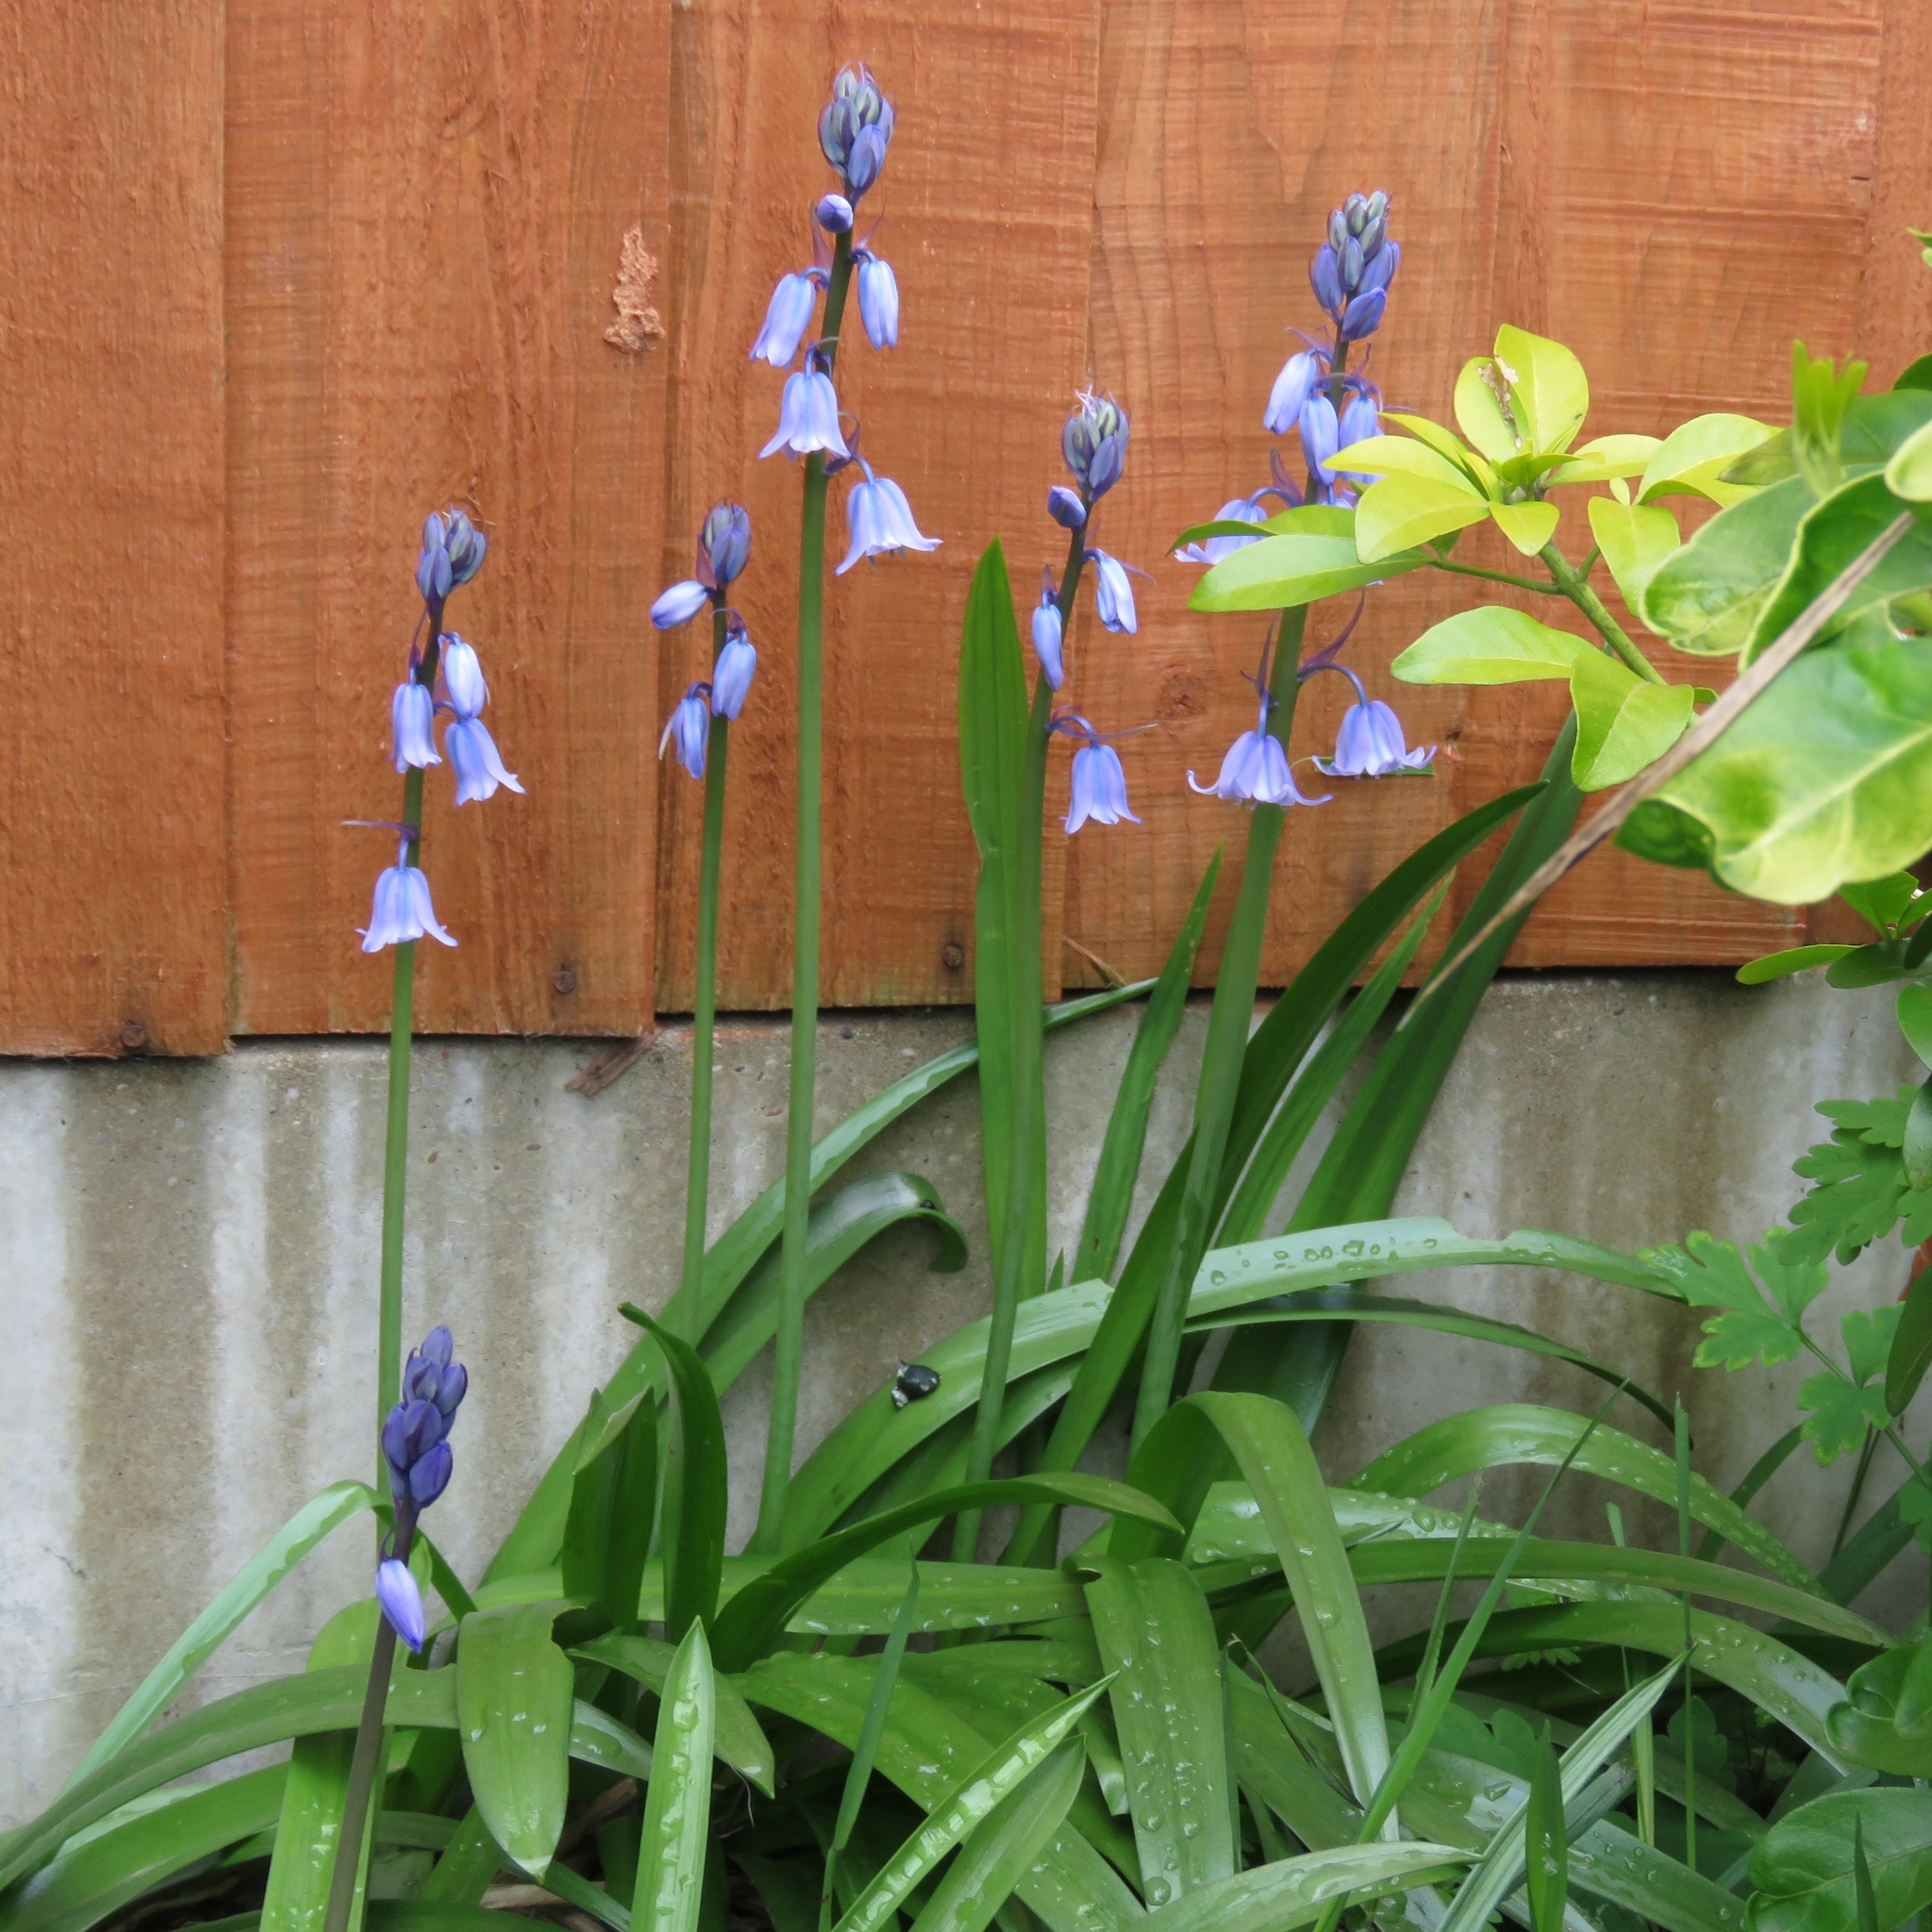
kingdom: Plantae
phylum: Tracheophyta
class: Liliopsida
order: Asparagales
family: Asparagaceae
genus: Hyacinthoides
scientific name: Hyacinthoides hispanica
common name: Spanish bluebell
